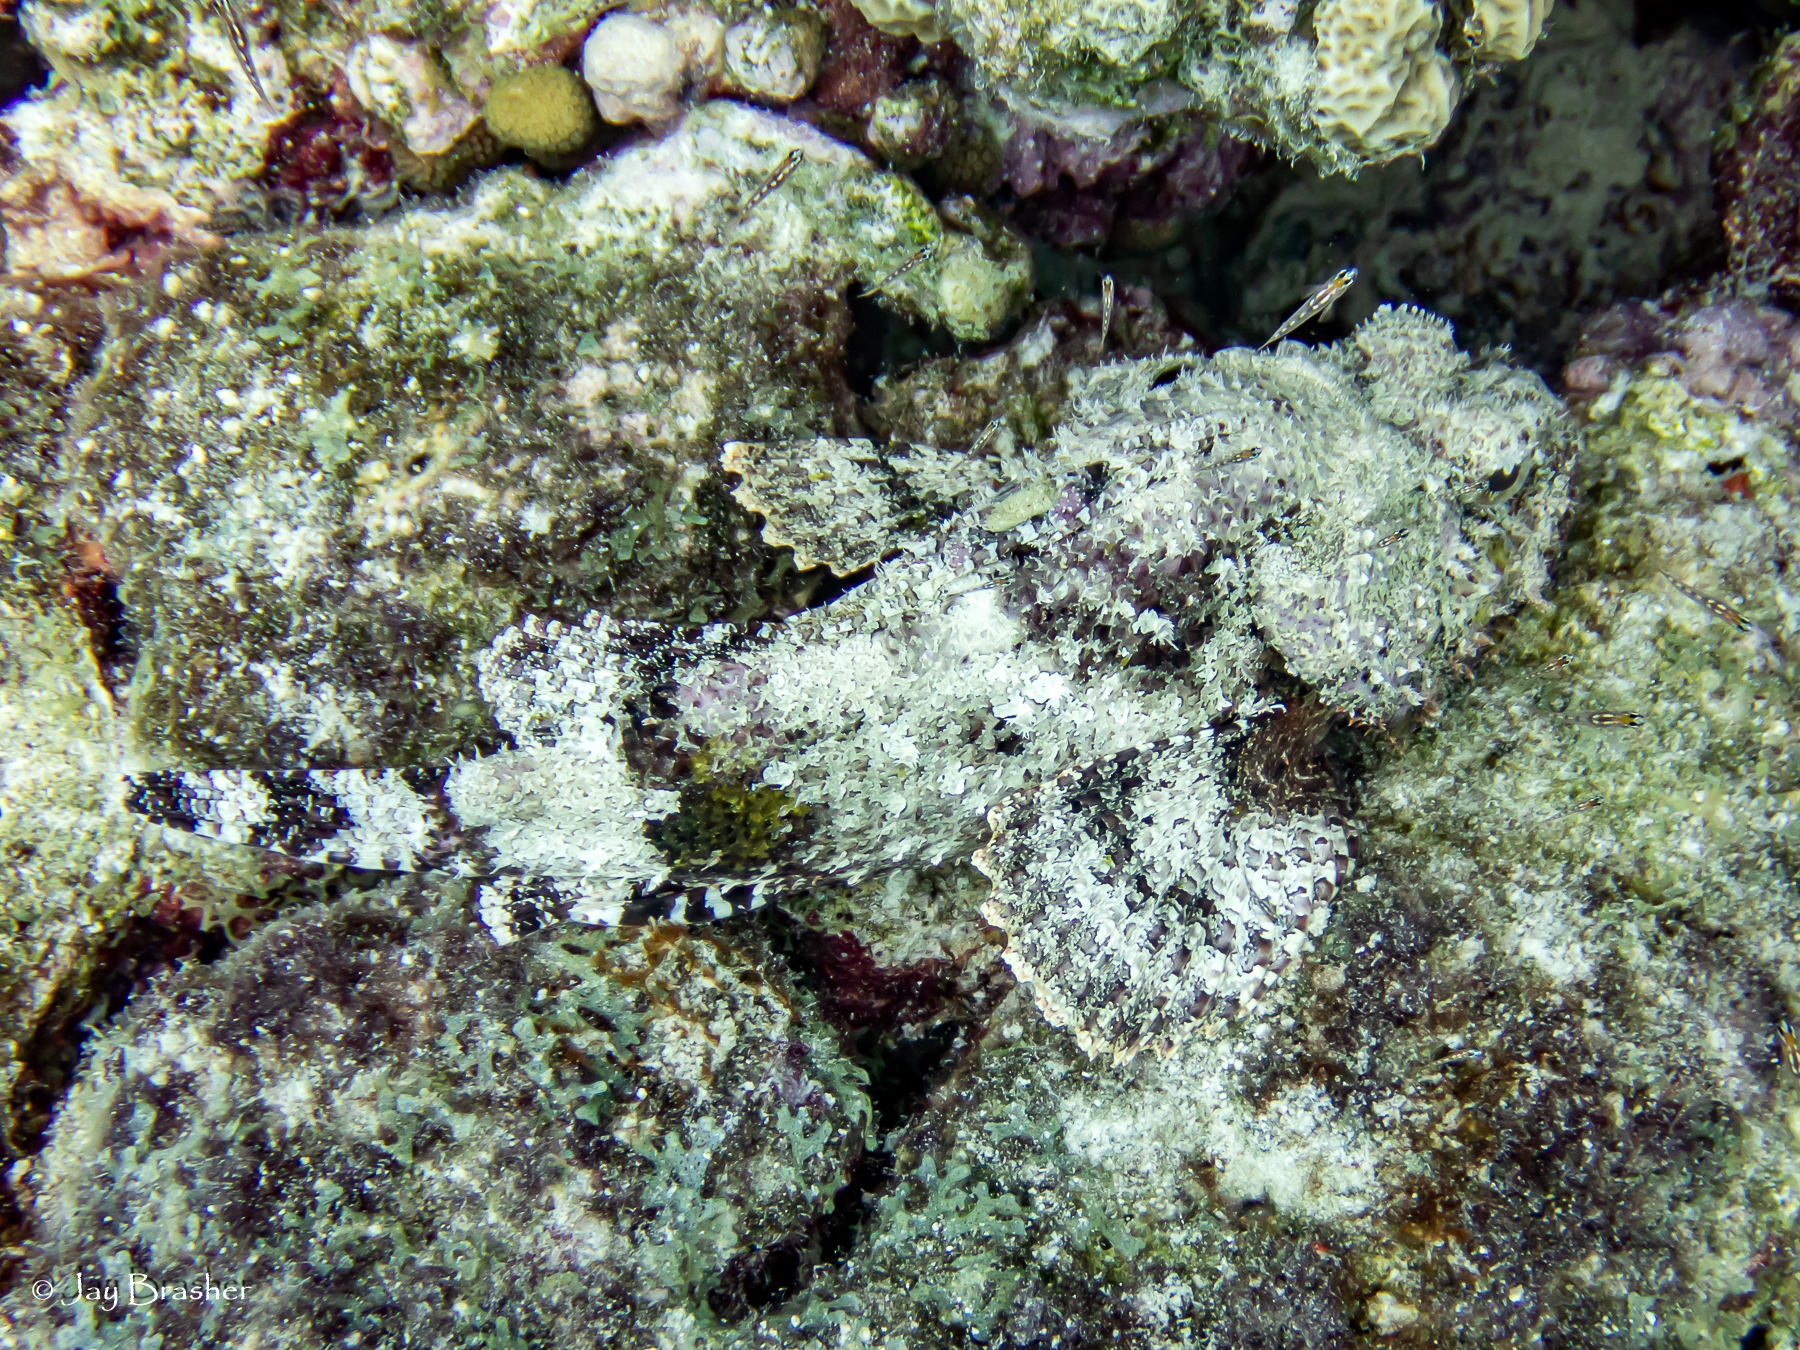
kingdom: Animalia
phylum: Chordata
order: Scorpaeniformes
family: Scorpaenidae
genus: Scorpaena
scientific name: Scorpaena plumieri
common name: Spotted scorpionfish
